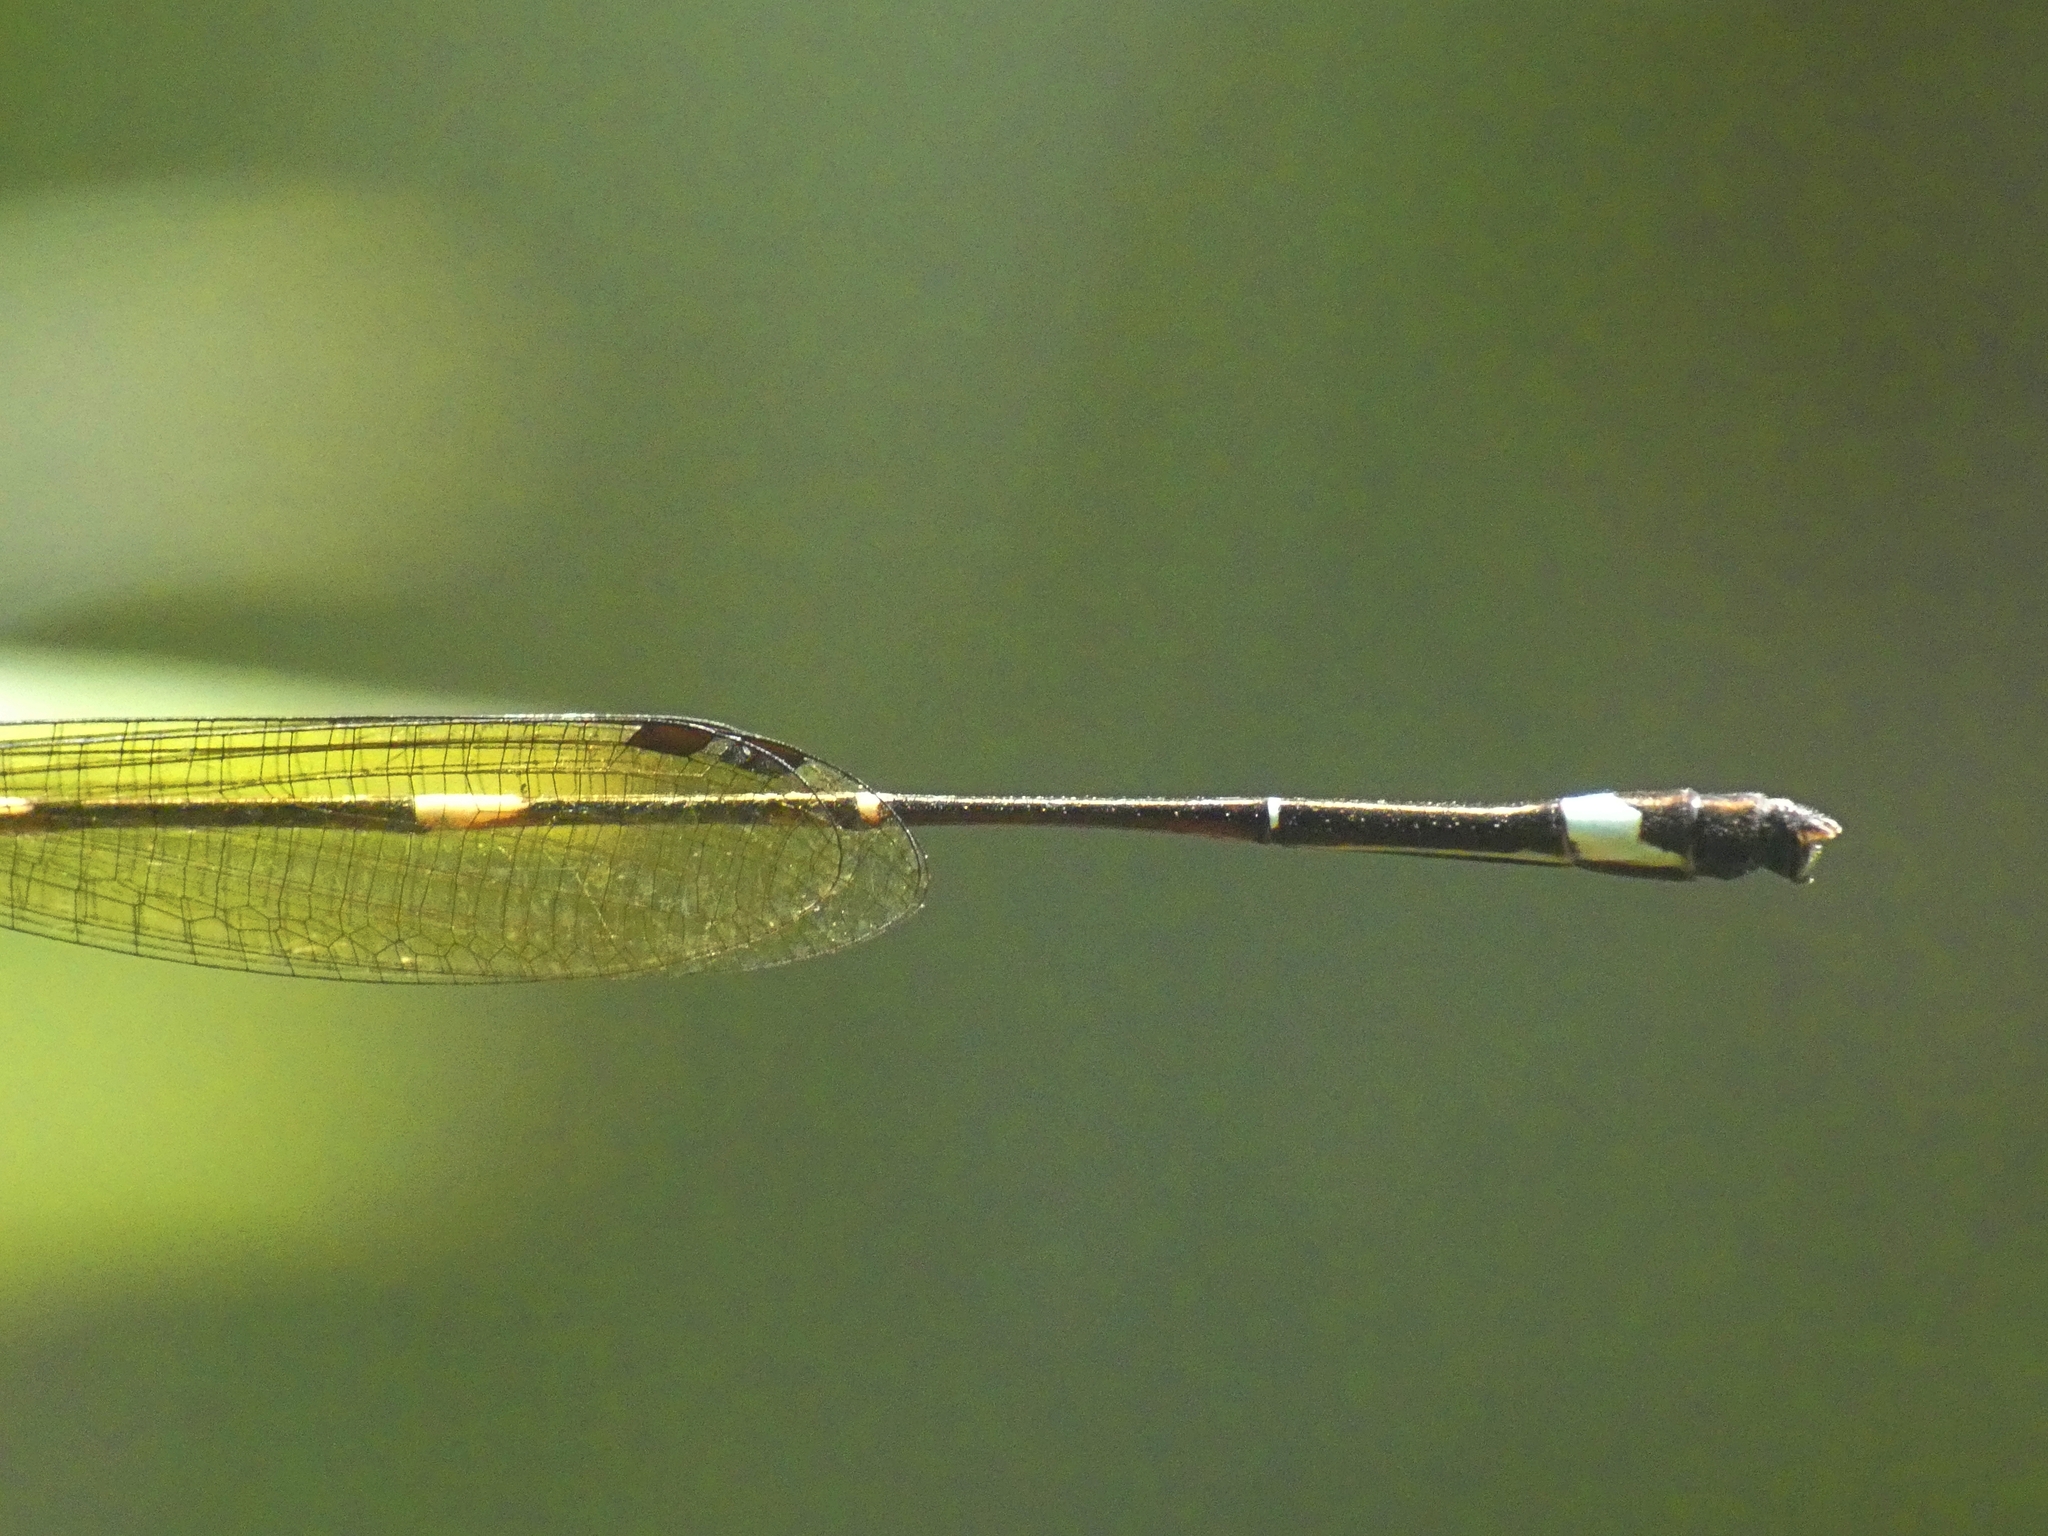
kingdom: Animalia
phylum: Arthropoda
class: Insecta
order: Odonata
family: Platycnemididae
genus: Nososticta
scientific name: Nososticta solitaria
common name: Fivespot threadtail
